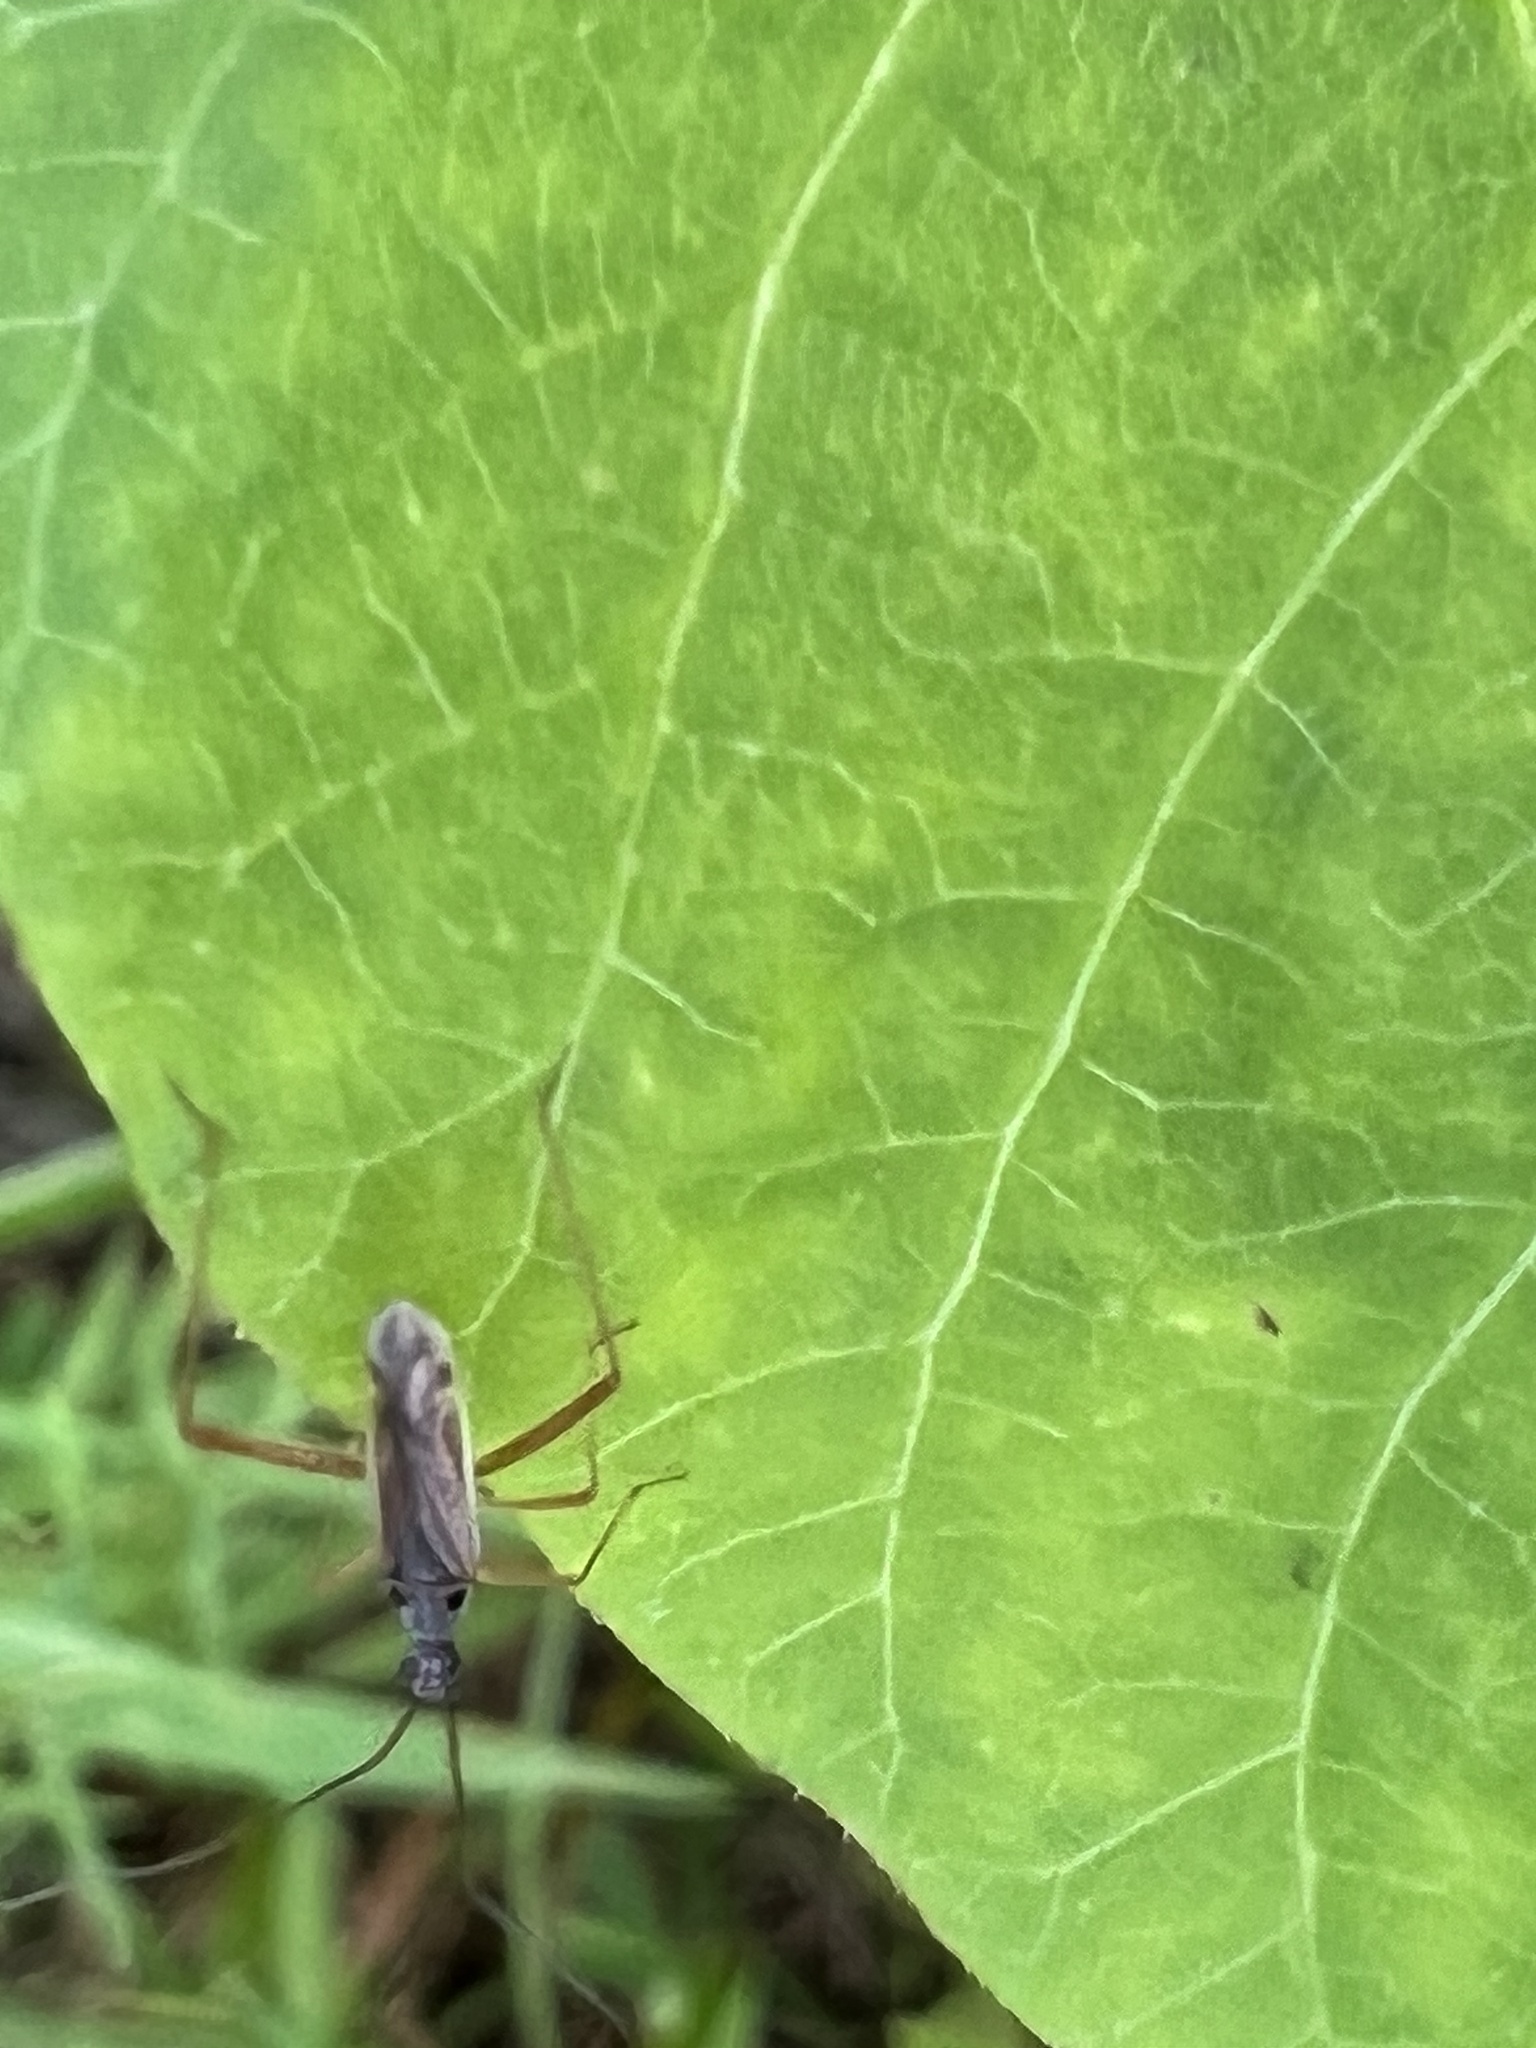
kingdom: Animalia
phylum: Arthropoda
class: Insecta
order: Hemiptera
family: Miridae
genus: Collaria
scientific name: Collaria oculata
